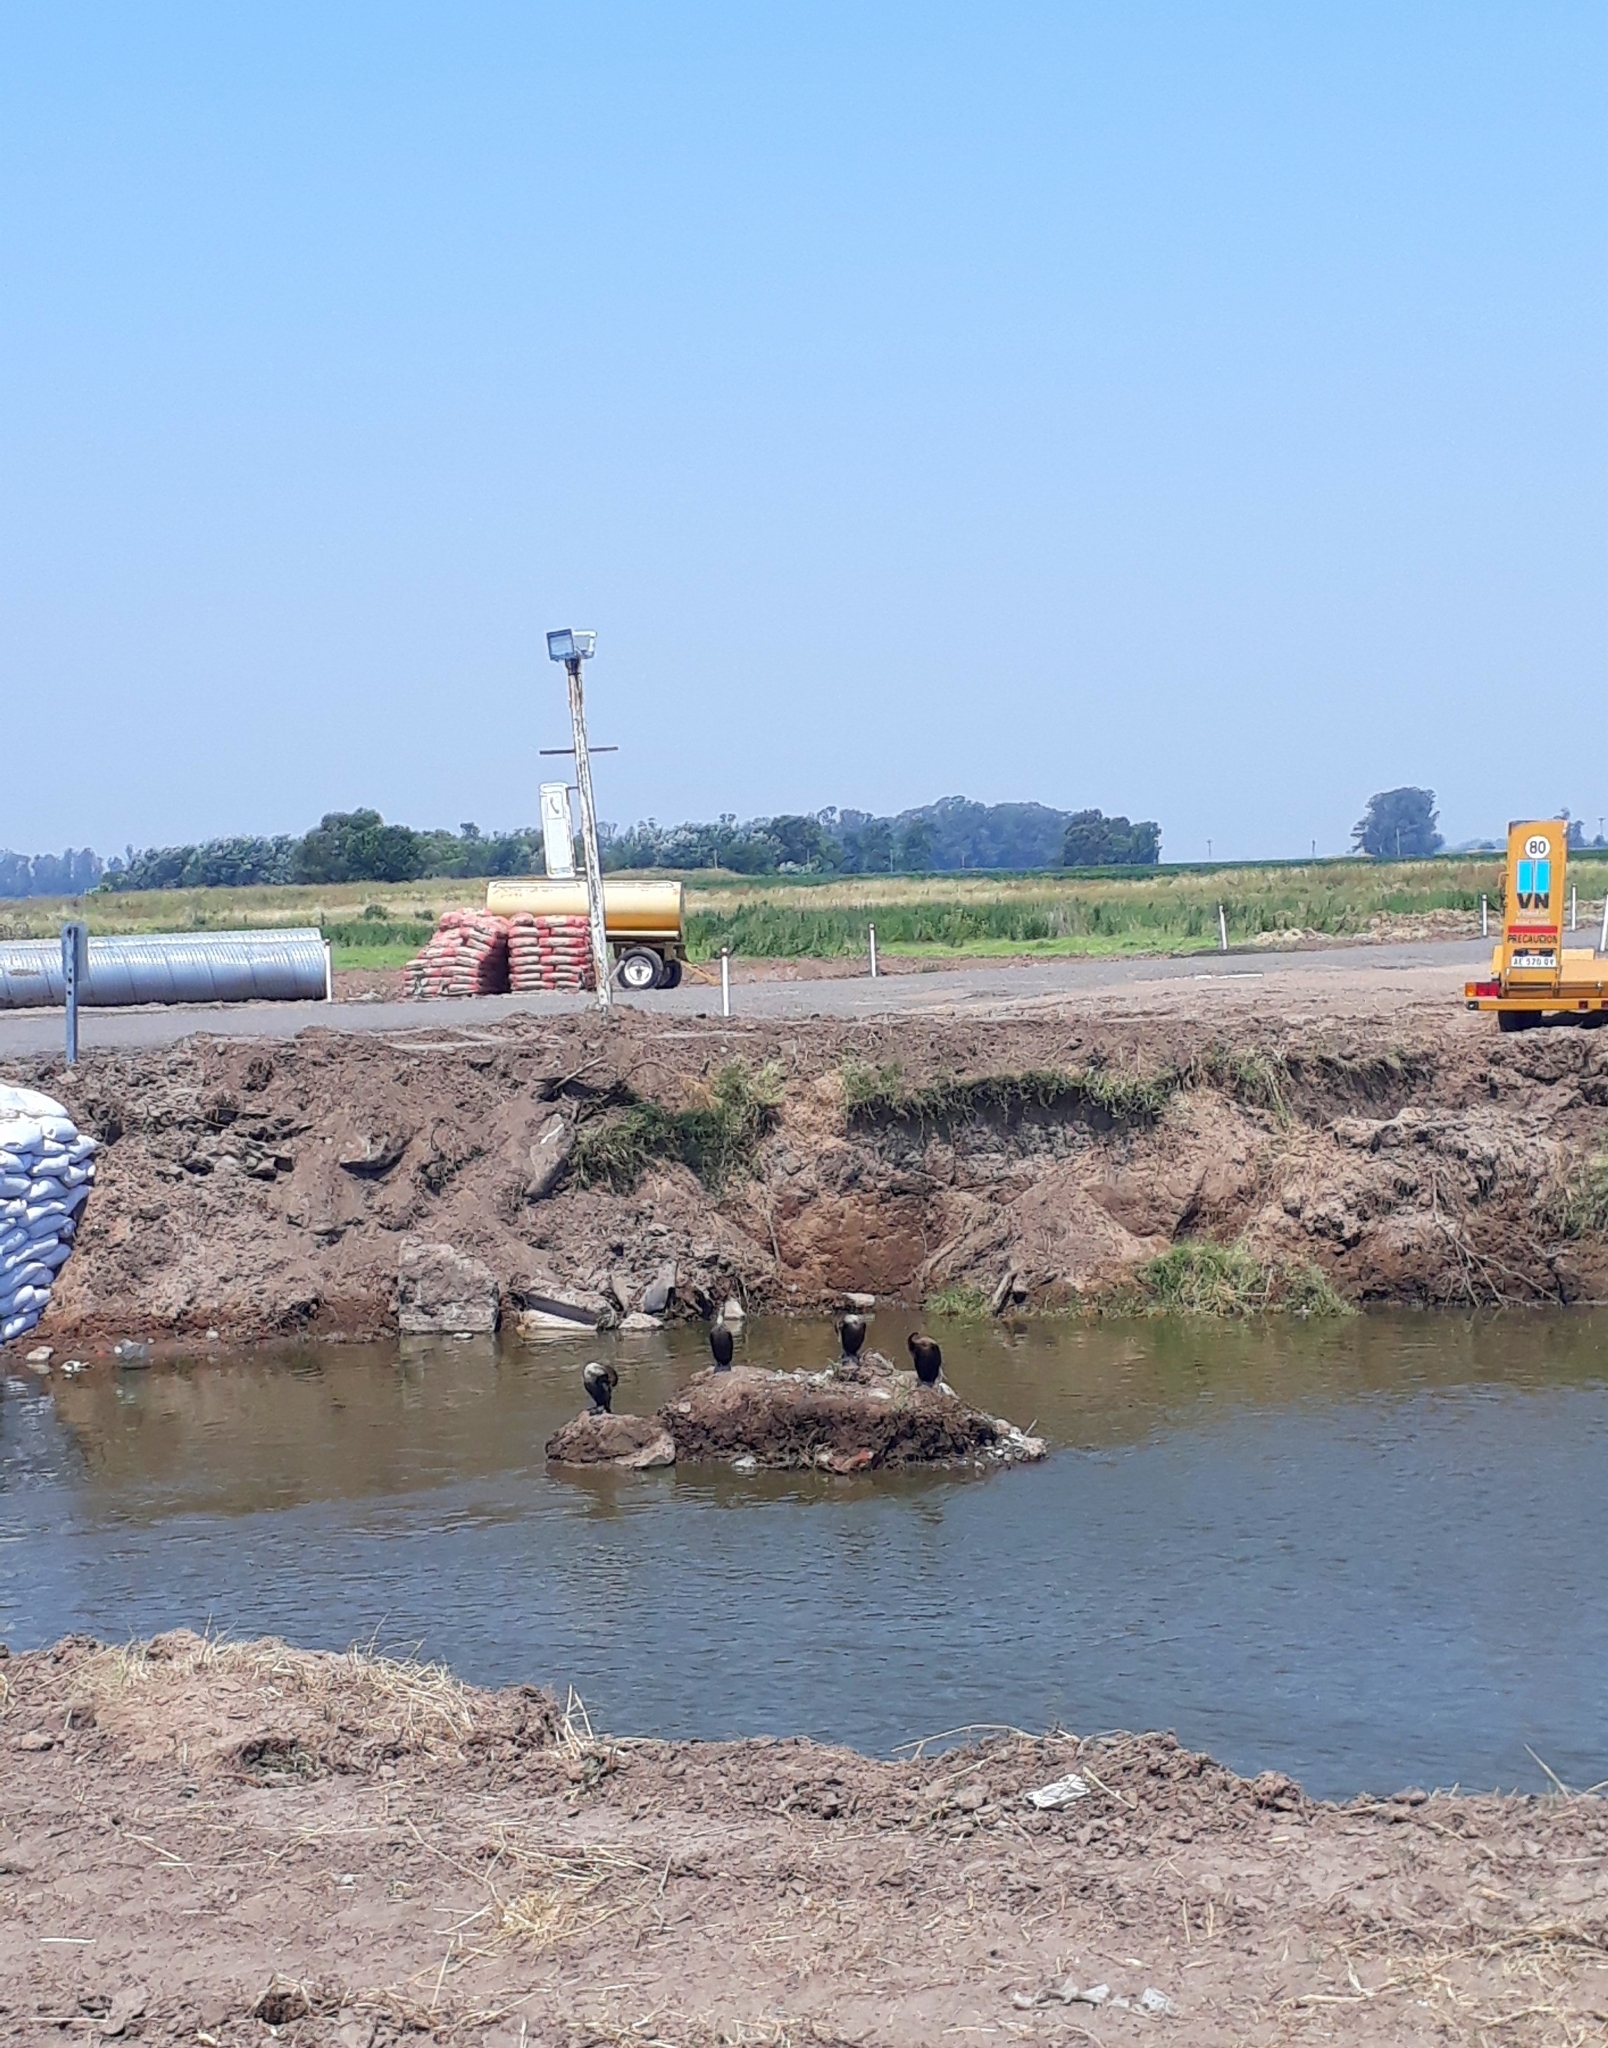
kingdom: Animalia
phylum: Chordata
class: Aves
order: Suliformes
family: Phalacrocoracidae
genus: Phalacrocorax
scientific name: Phalacrocorax brasilianus
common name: Neotropic cormorant
